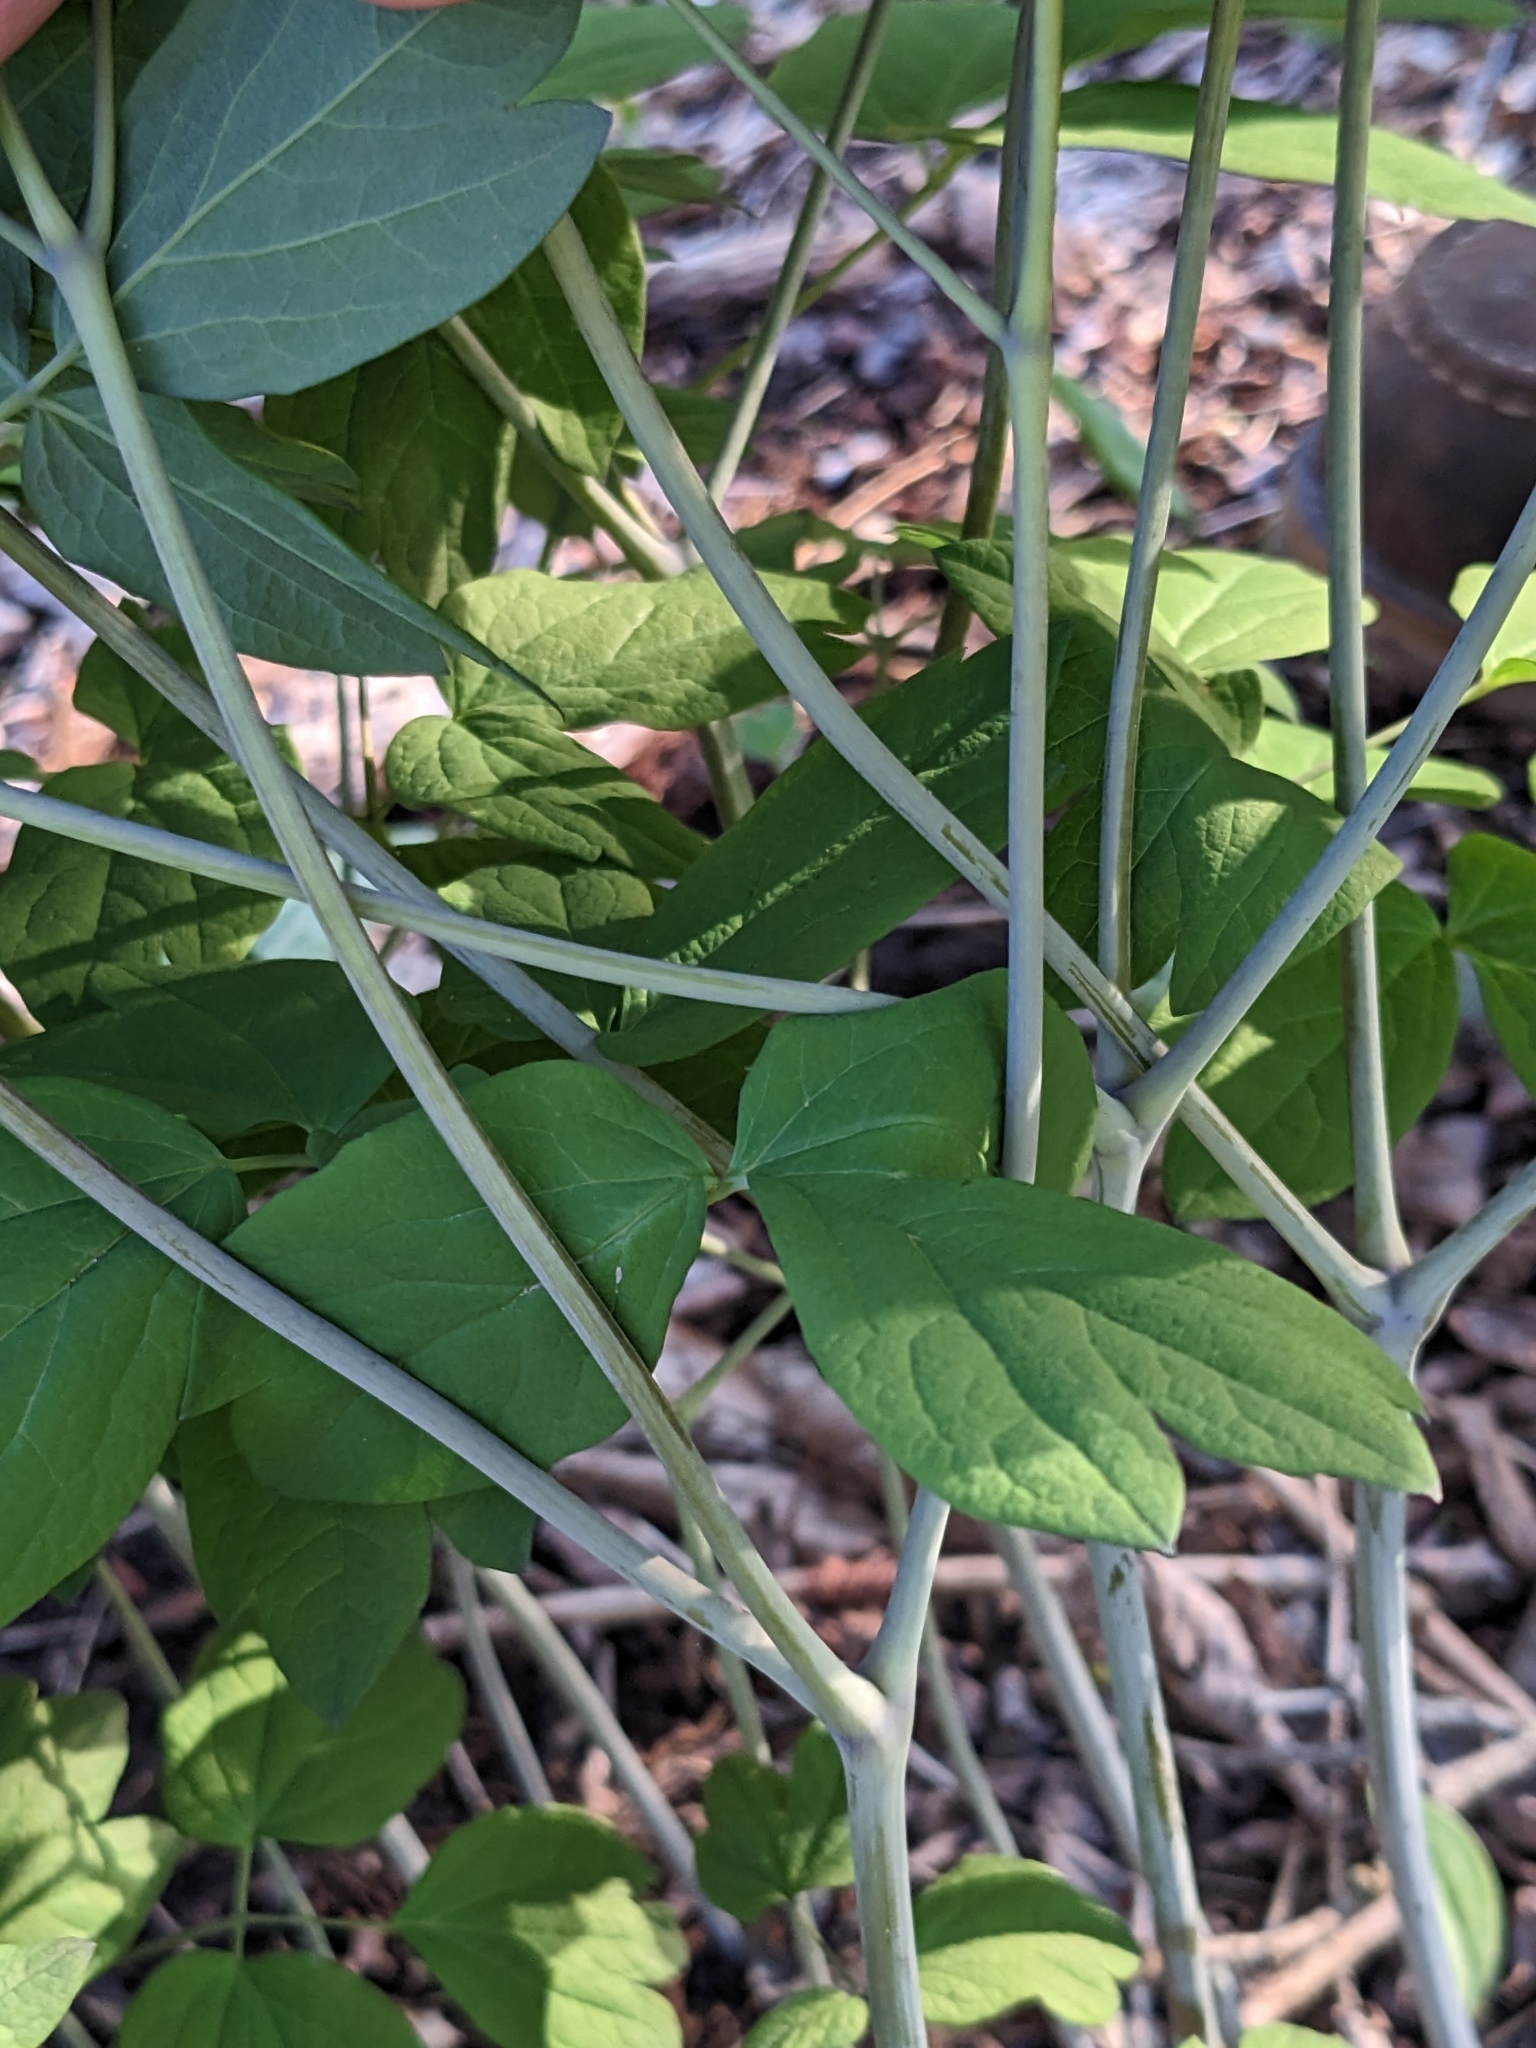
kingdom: Plantae
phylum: Tracheophyta
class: Magnoliopsida
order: Ranunculales
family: Berberidaceae
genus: Caulophyllum
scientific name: Caulophyllum giganteum
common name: Blue cohosh
